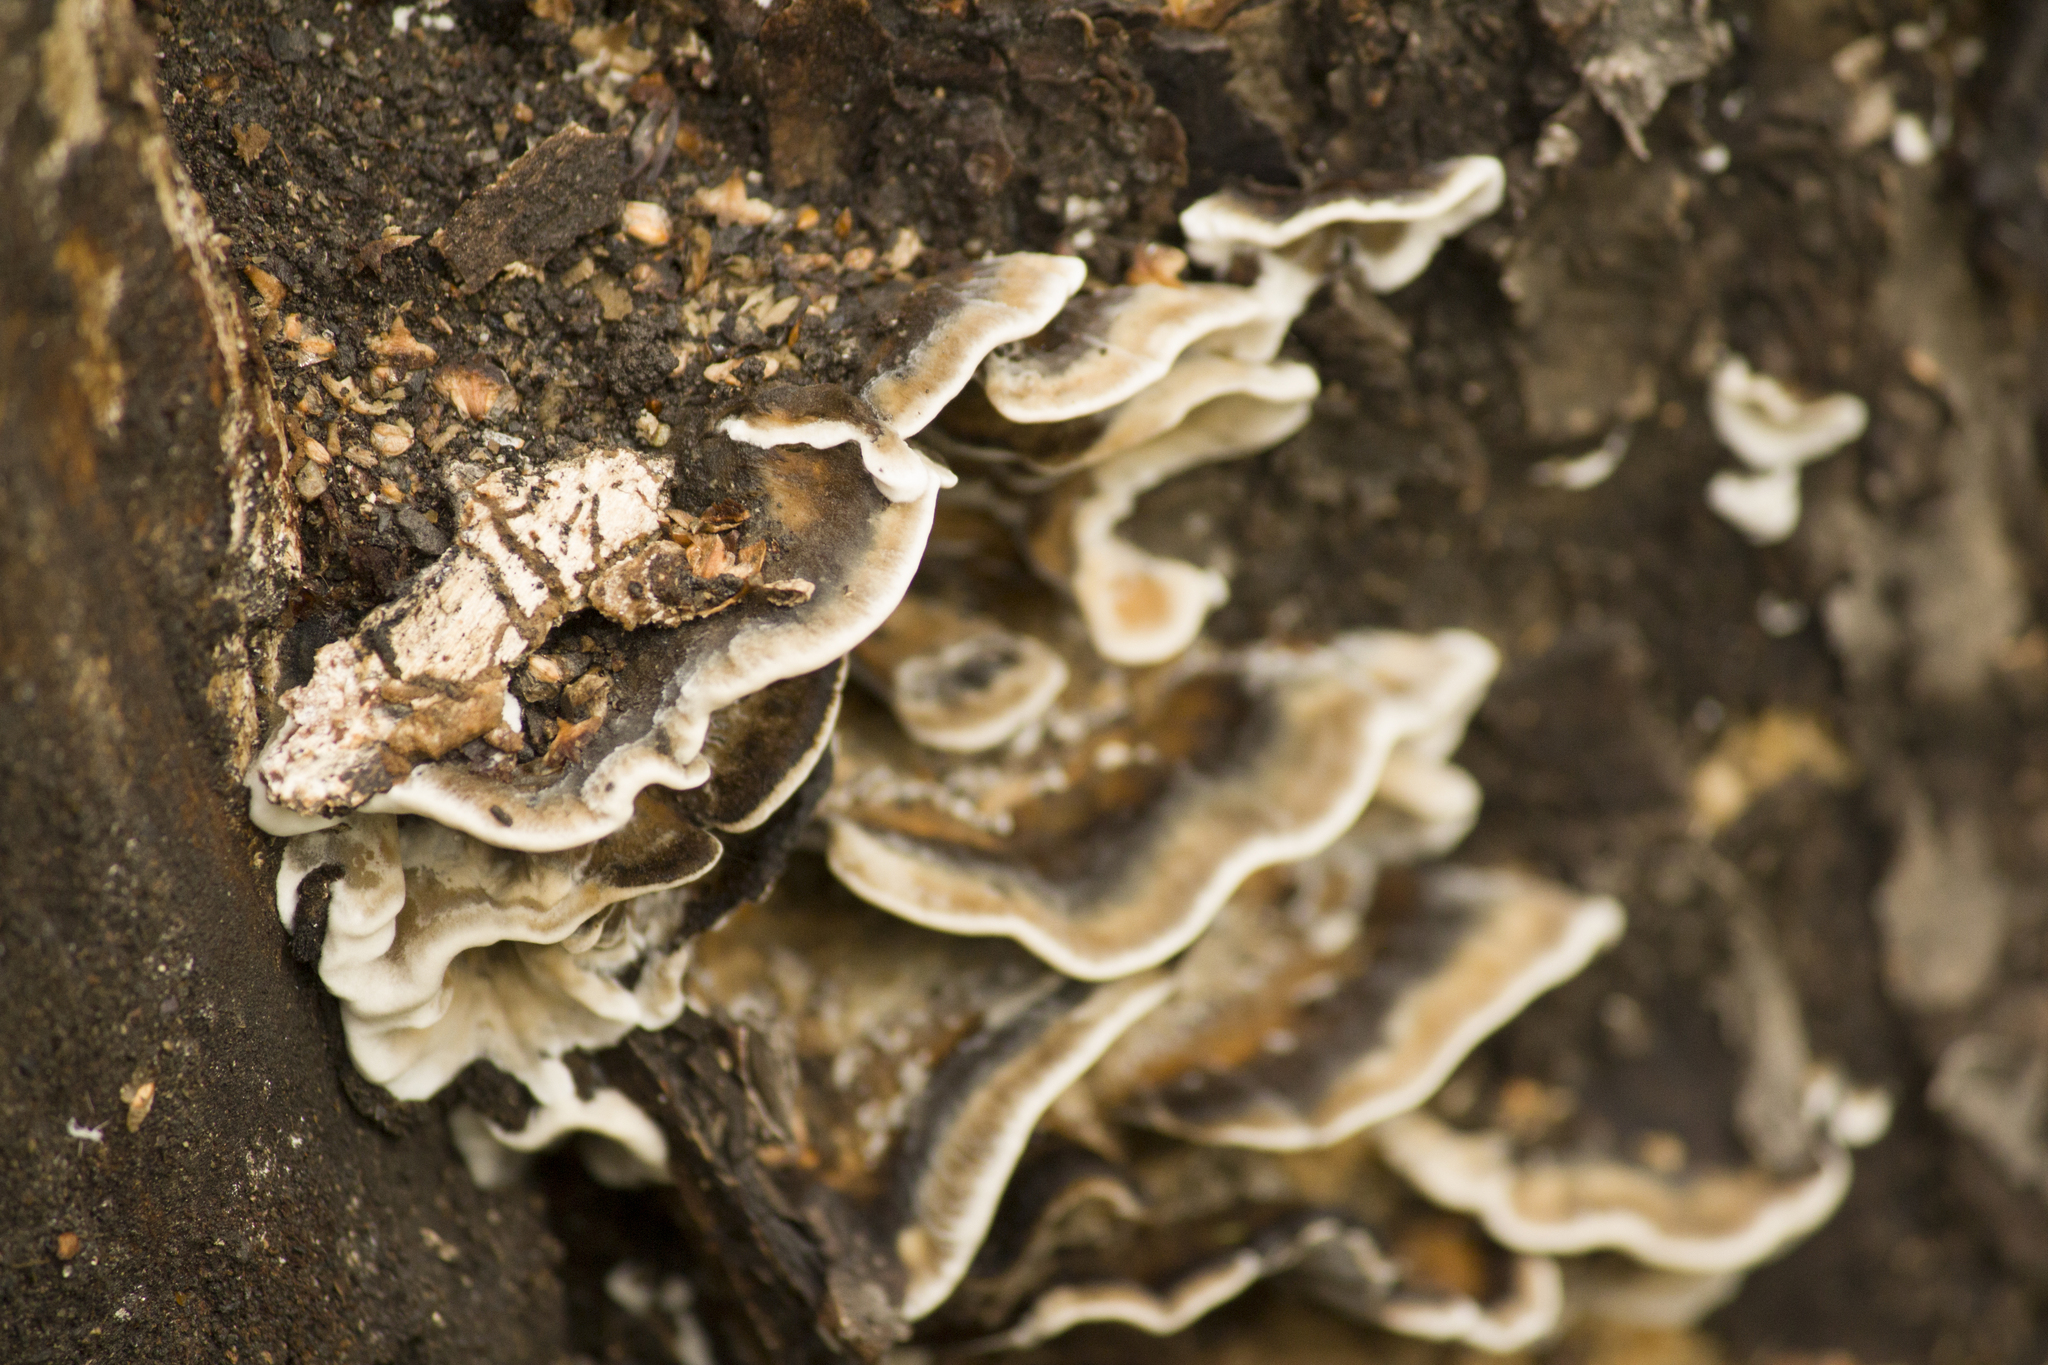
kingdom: Fungi
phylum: Basidiomycota
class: Agaricomycetes
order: Polyporales
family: Phanerochaetaceae
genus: Bjerkandera
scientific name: Bjerkandera adusta
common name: Smoky bracket
